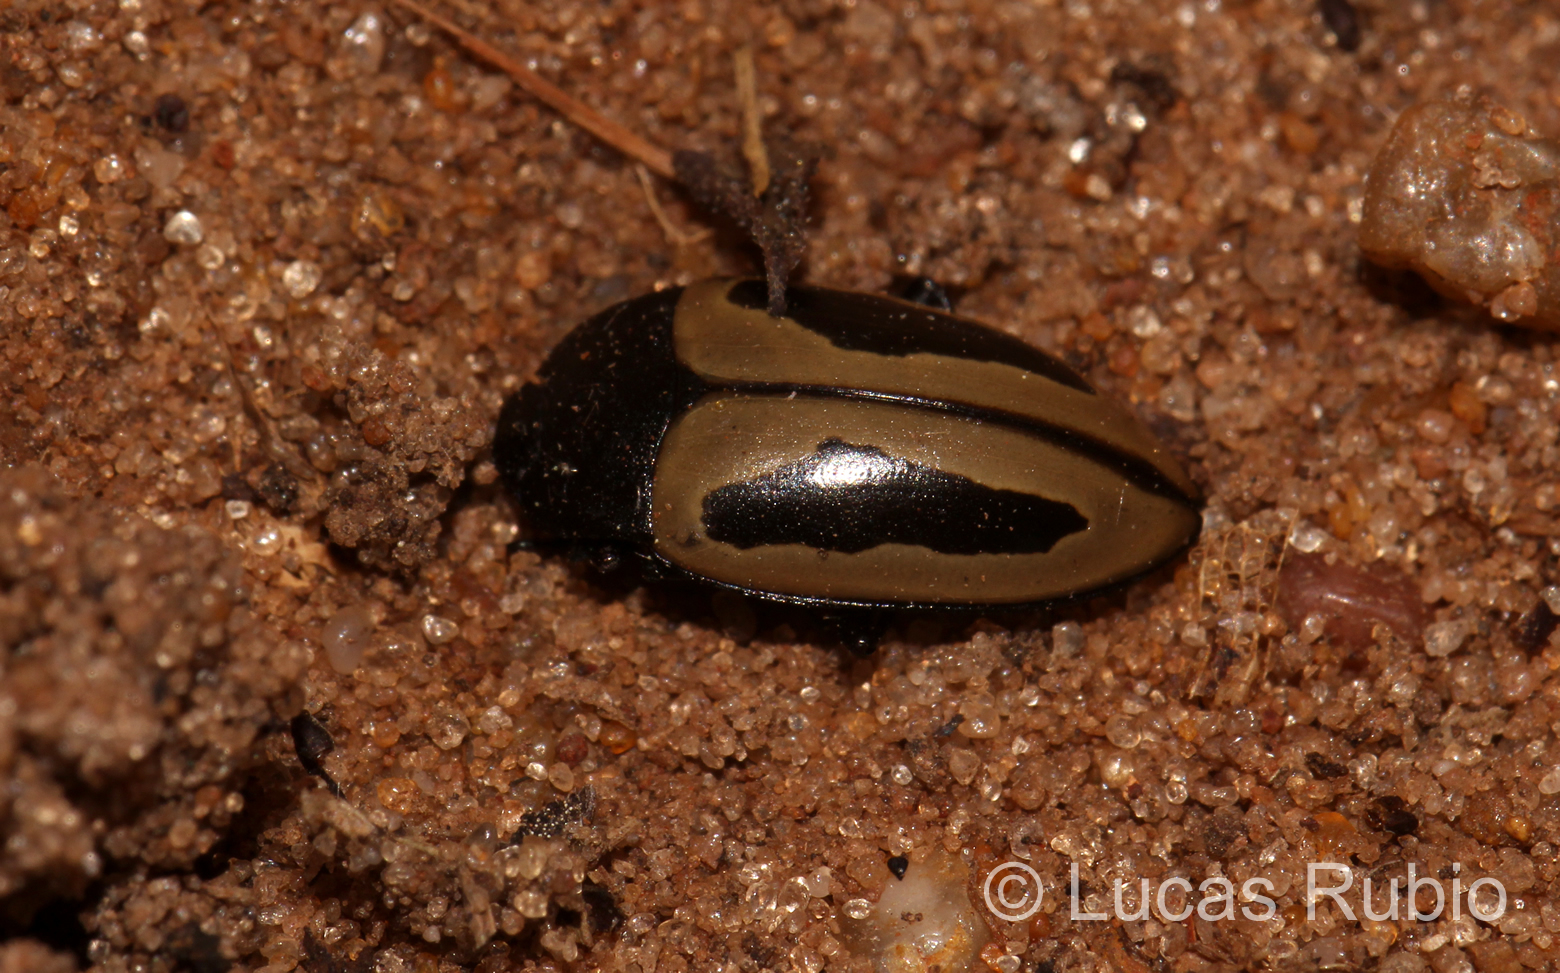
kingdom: Animalia
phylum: Arthropoda
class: Insecta
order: Coleoptera
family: Erotylidae
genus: Iphiclus
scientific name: Iphiclus
